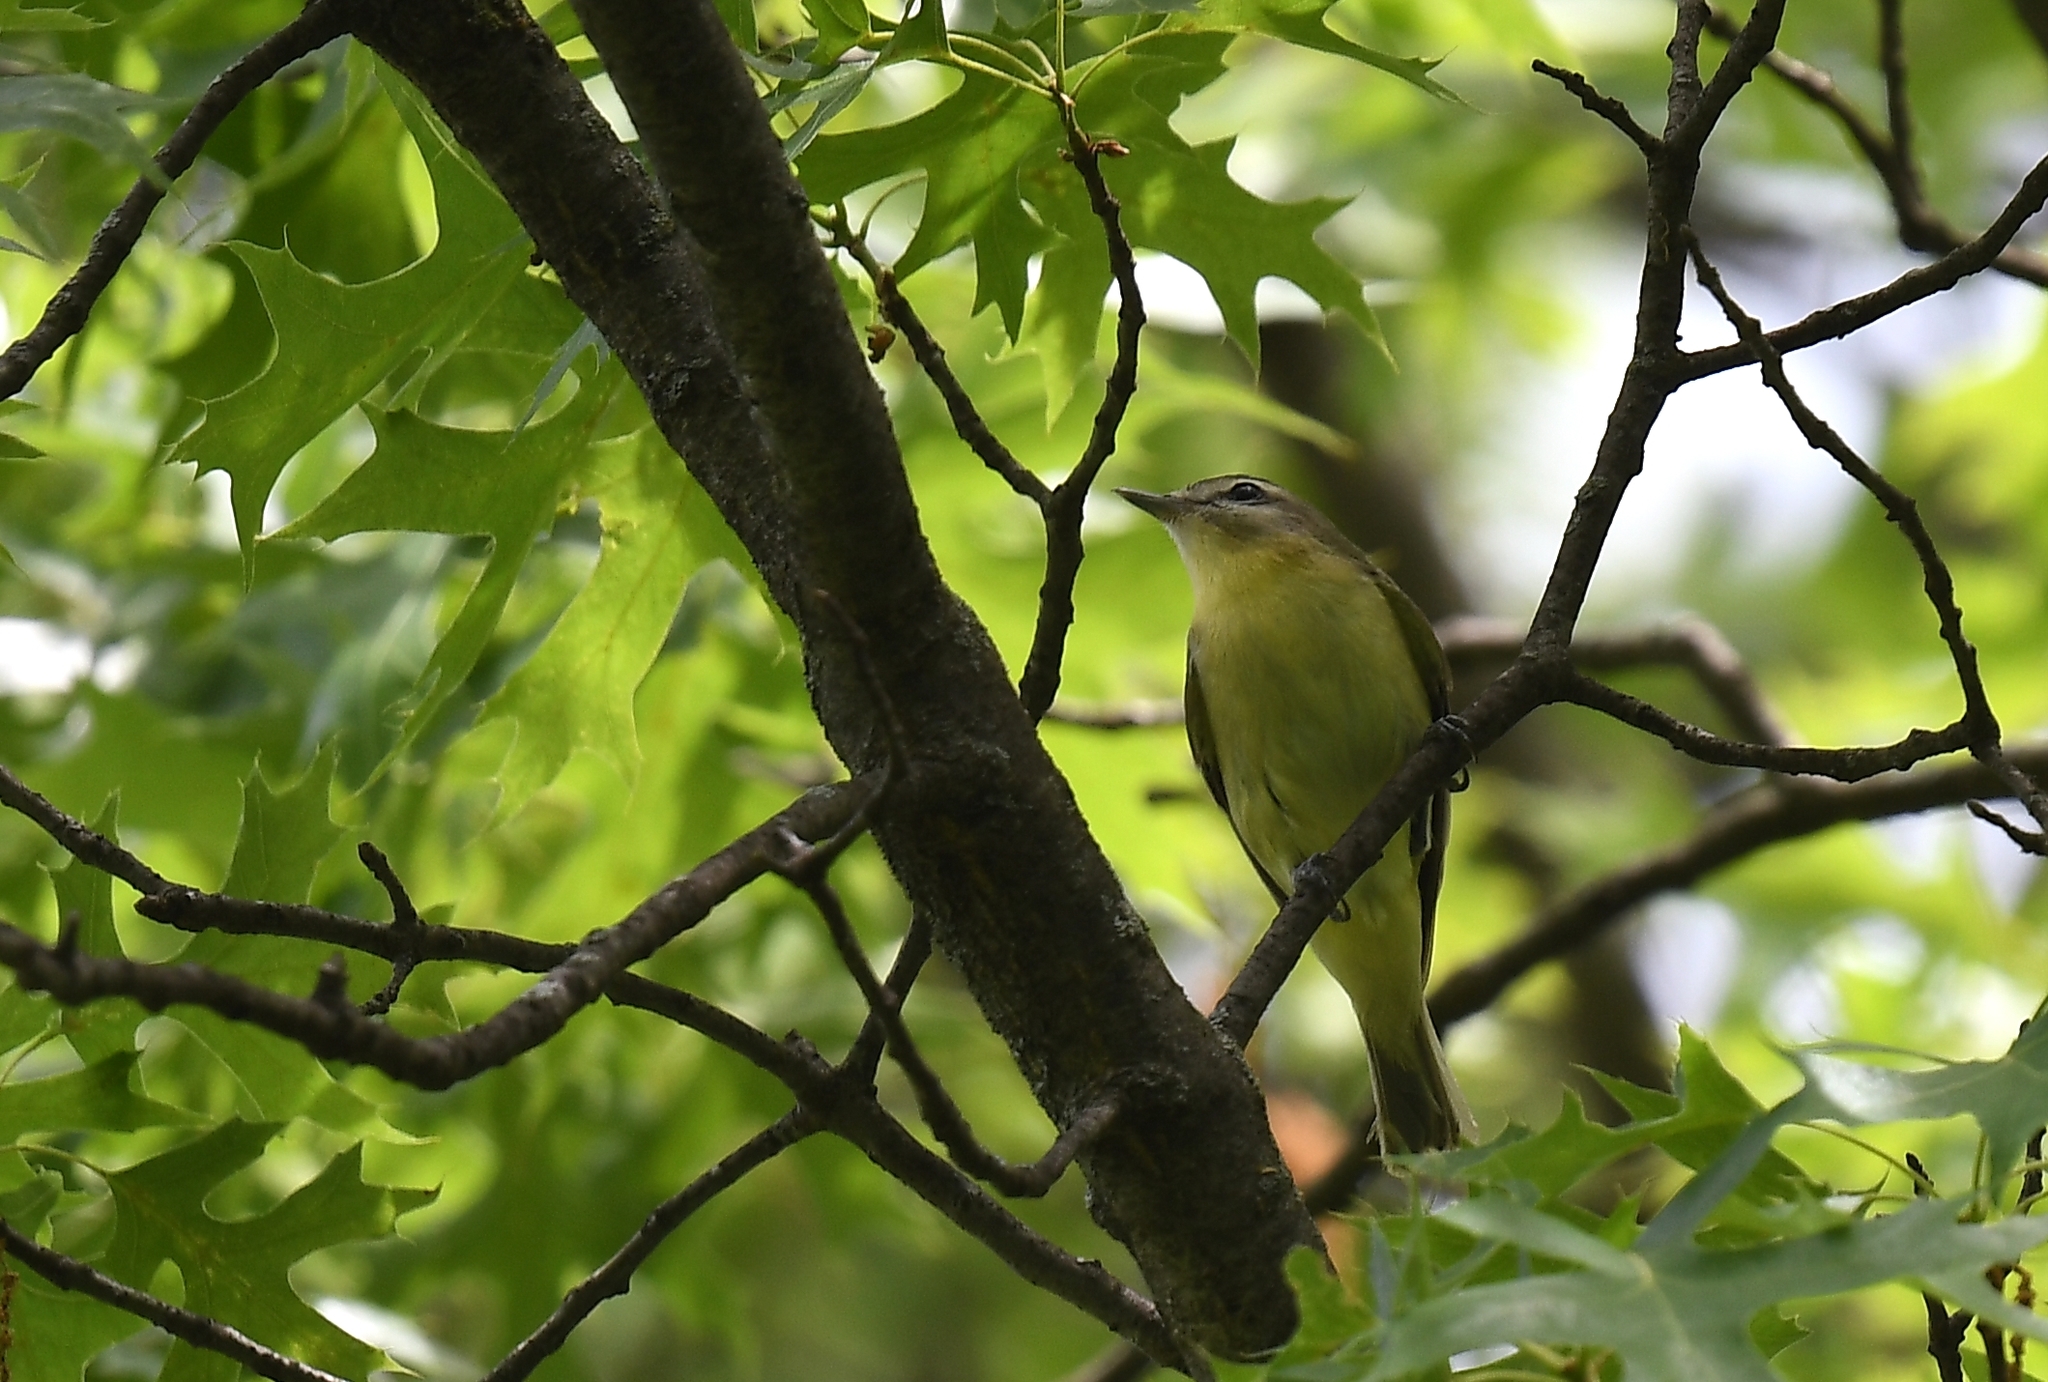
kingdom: Animalia
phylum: Chordata
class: Aves
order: Passeriformes
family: Vireonidae
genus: Vireo
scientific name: Vireo philadelphicus
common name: Philadelphia vireo
